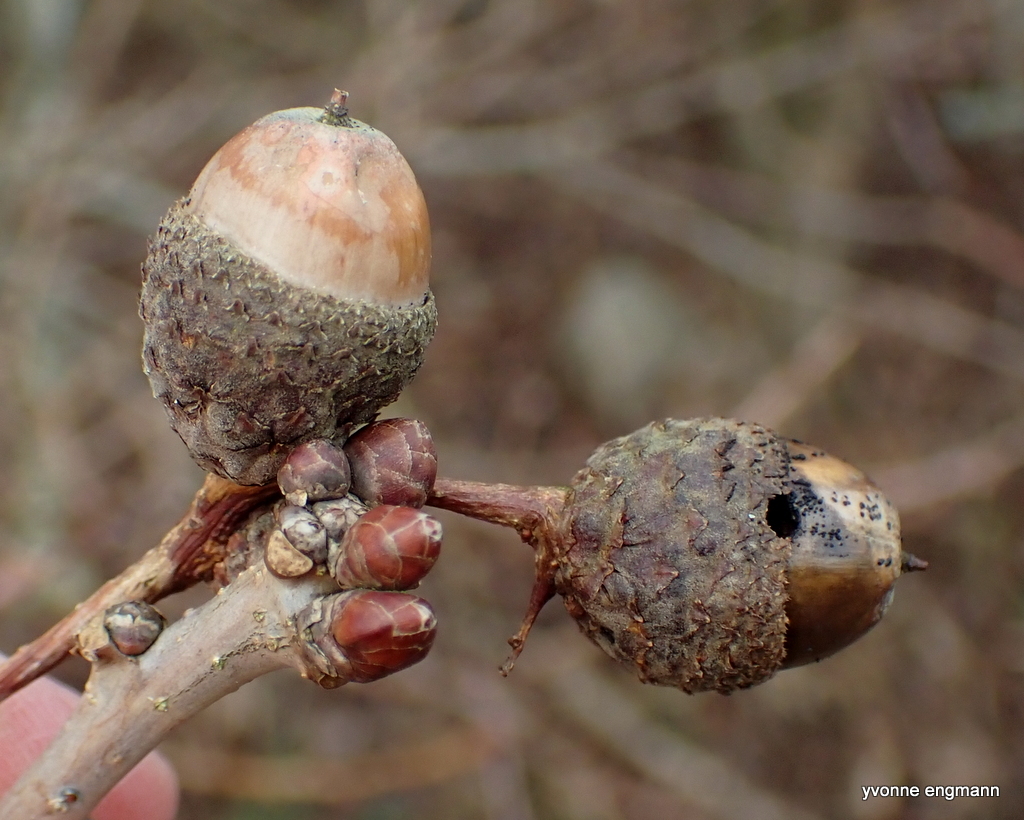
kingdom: Animalia
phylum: Arthropoda
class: Insecta
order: Coleoptera
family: Curculionidae
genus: Curculio
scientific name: Curculio nucum
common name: Nut weevil
